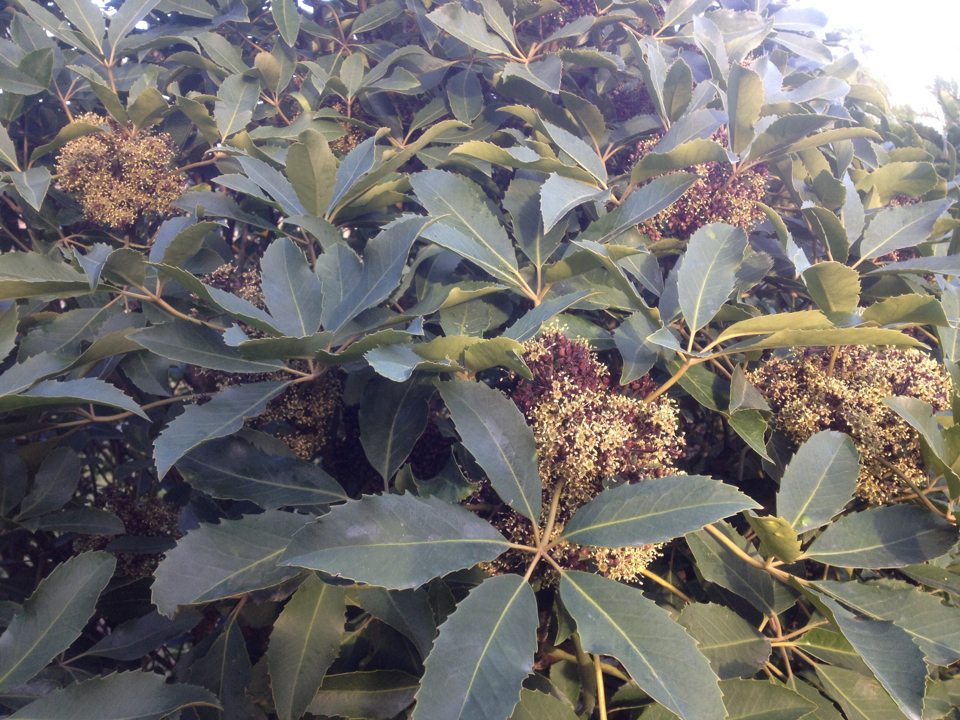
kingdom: Plantae
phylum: Tracheophyta
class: Magnoliopsida
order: Apiales
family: Araliaceae
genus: Neopanax
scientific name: Neopanax arboreus
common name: Five-fingers
